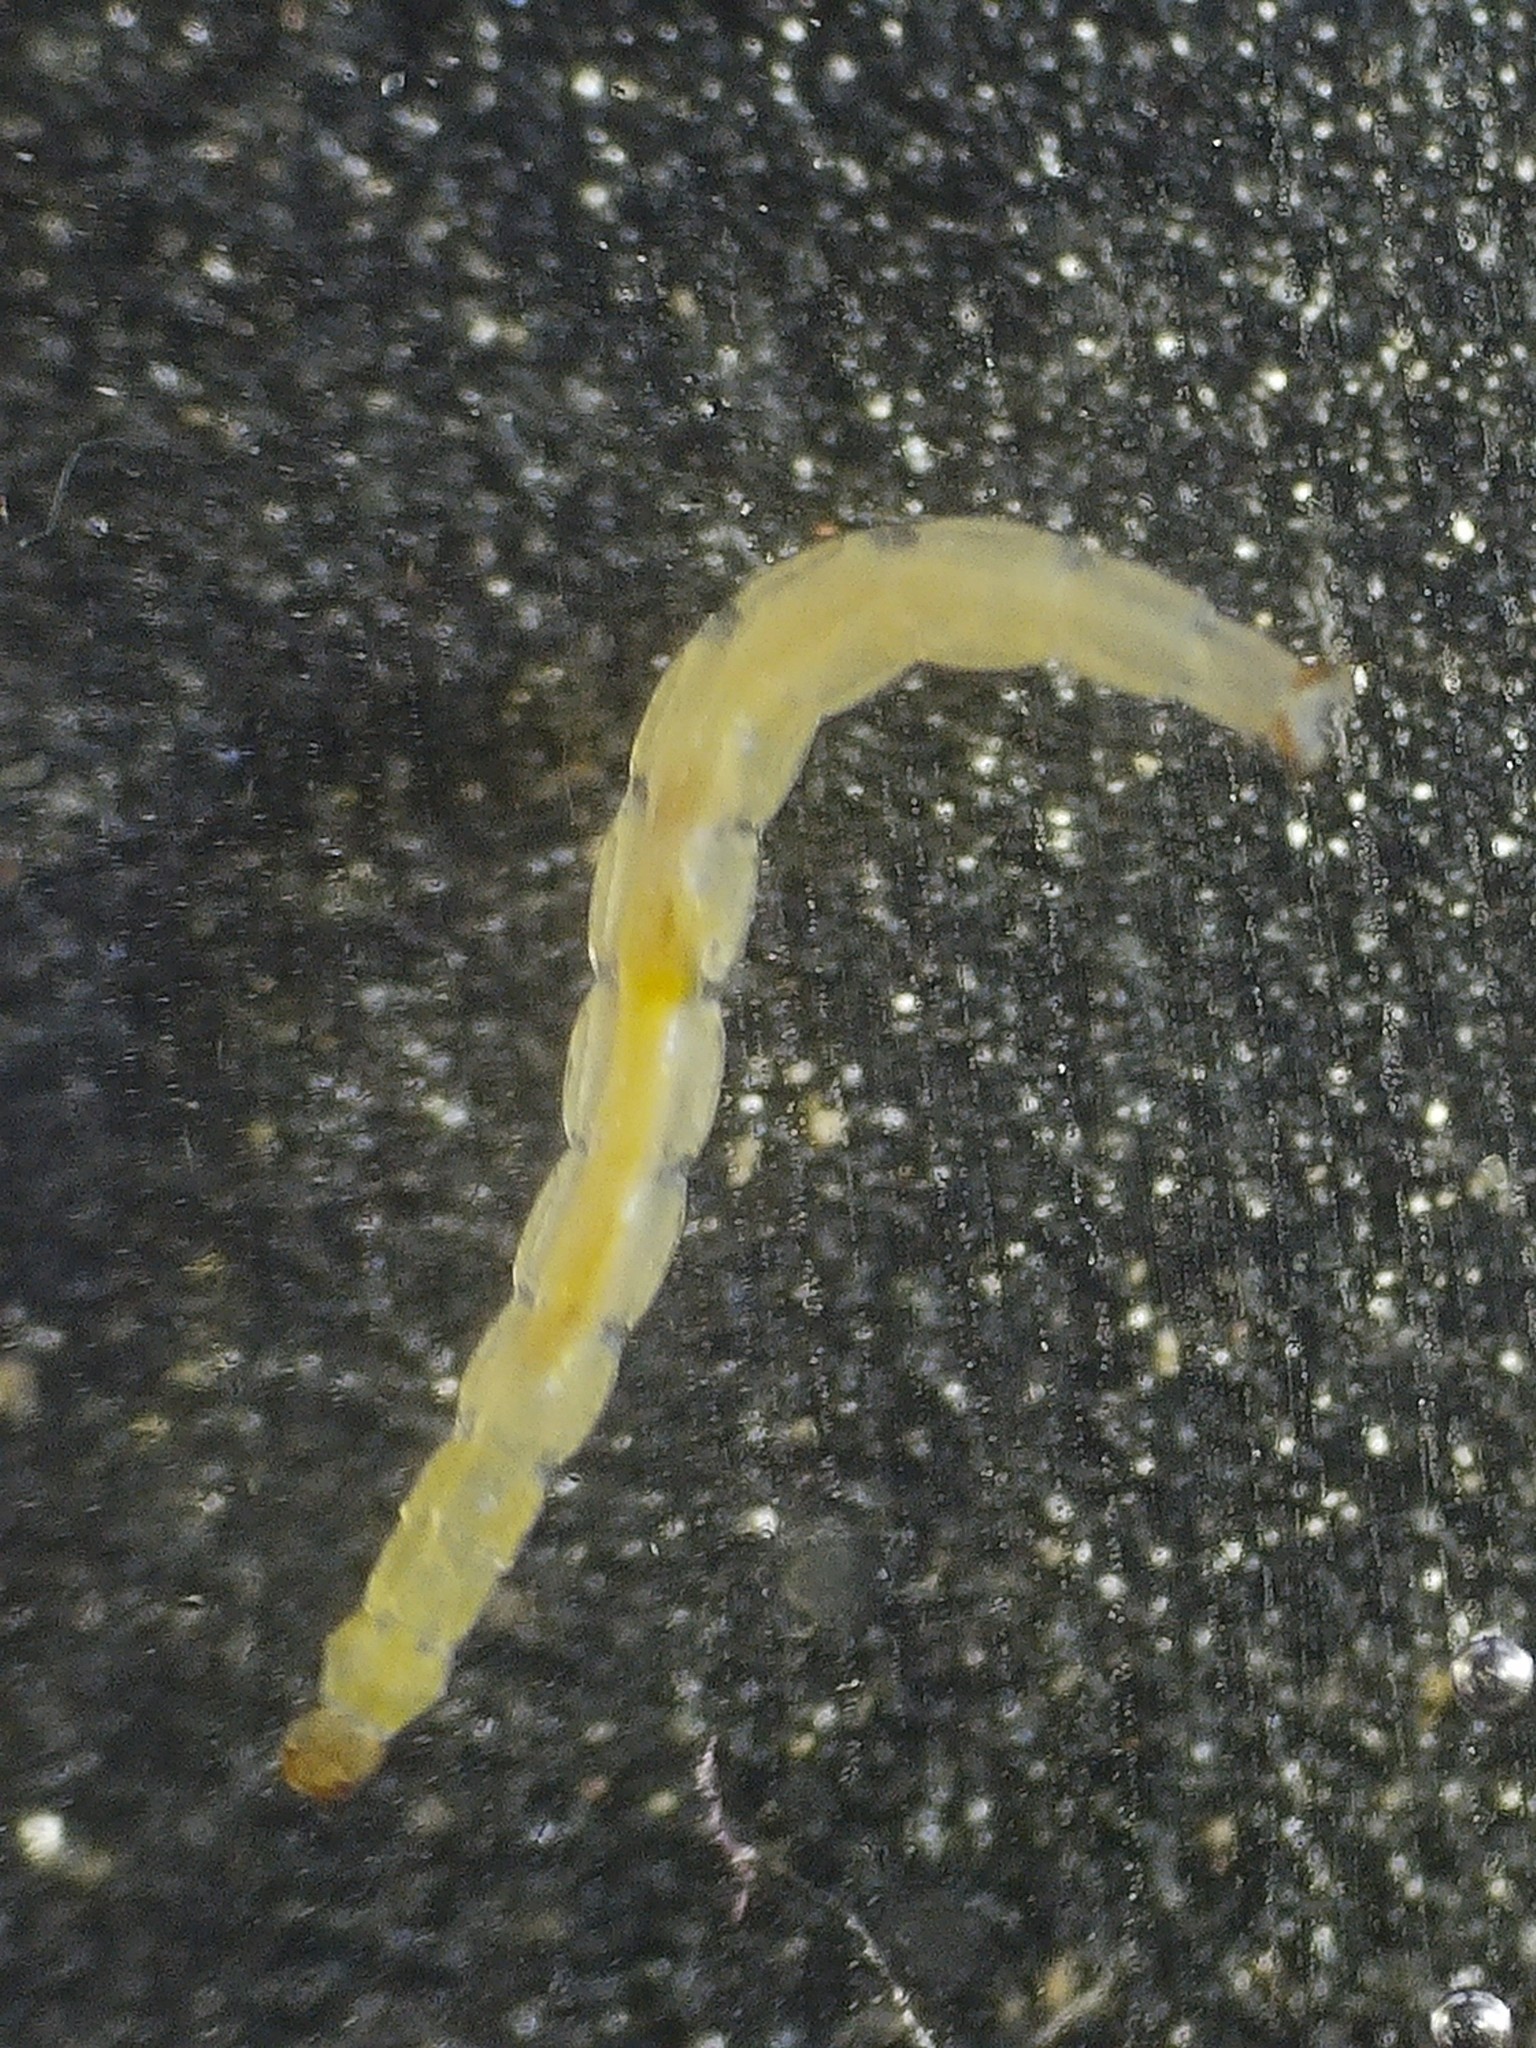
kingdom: Animalia
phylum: Arthropoda
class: Insecta
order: Diptera
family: Chironomidae
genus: Metriocnemus
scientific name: Metriocnemus knabi
